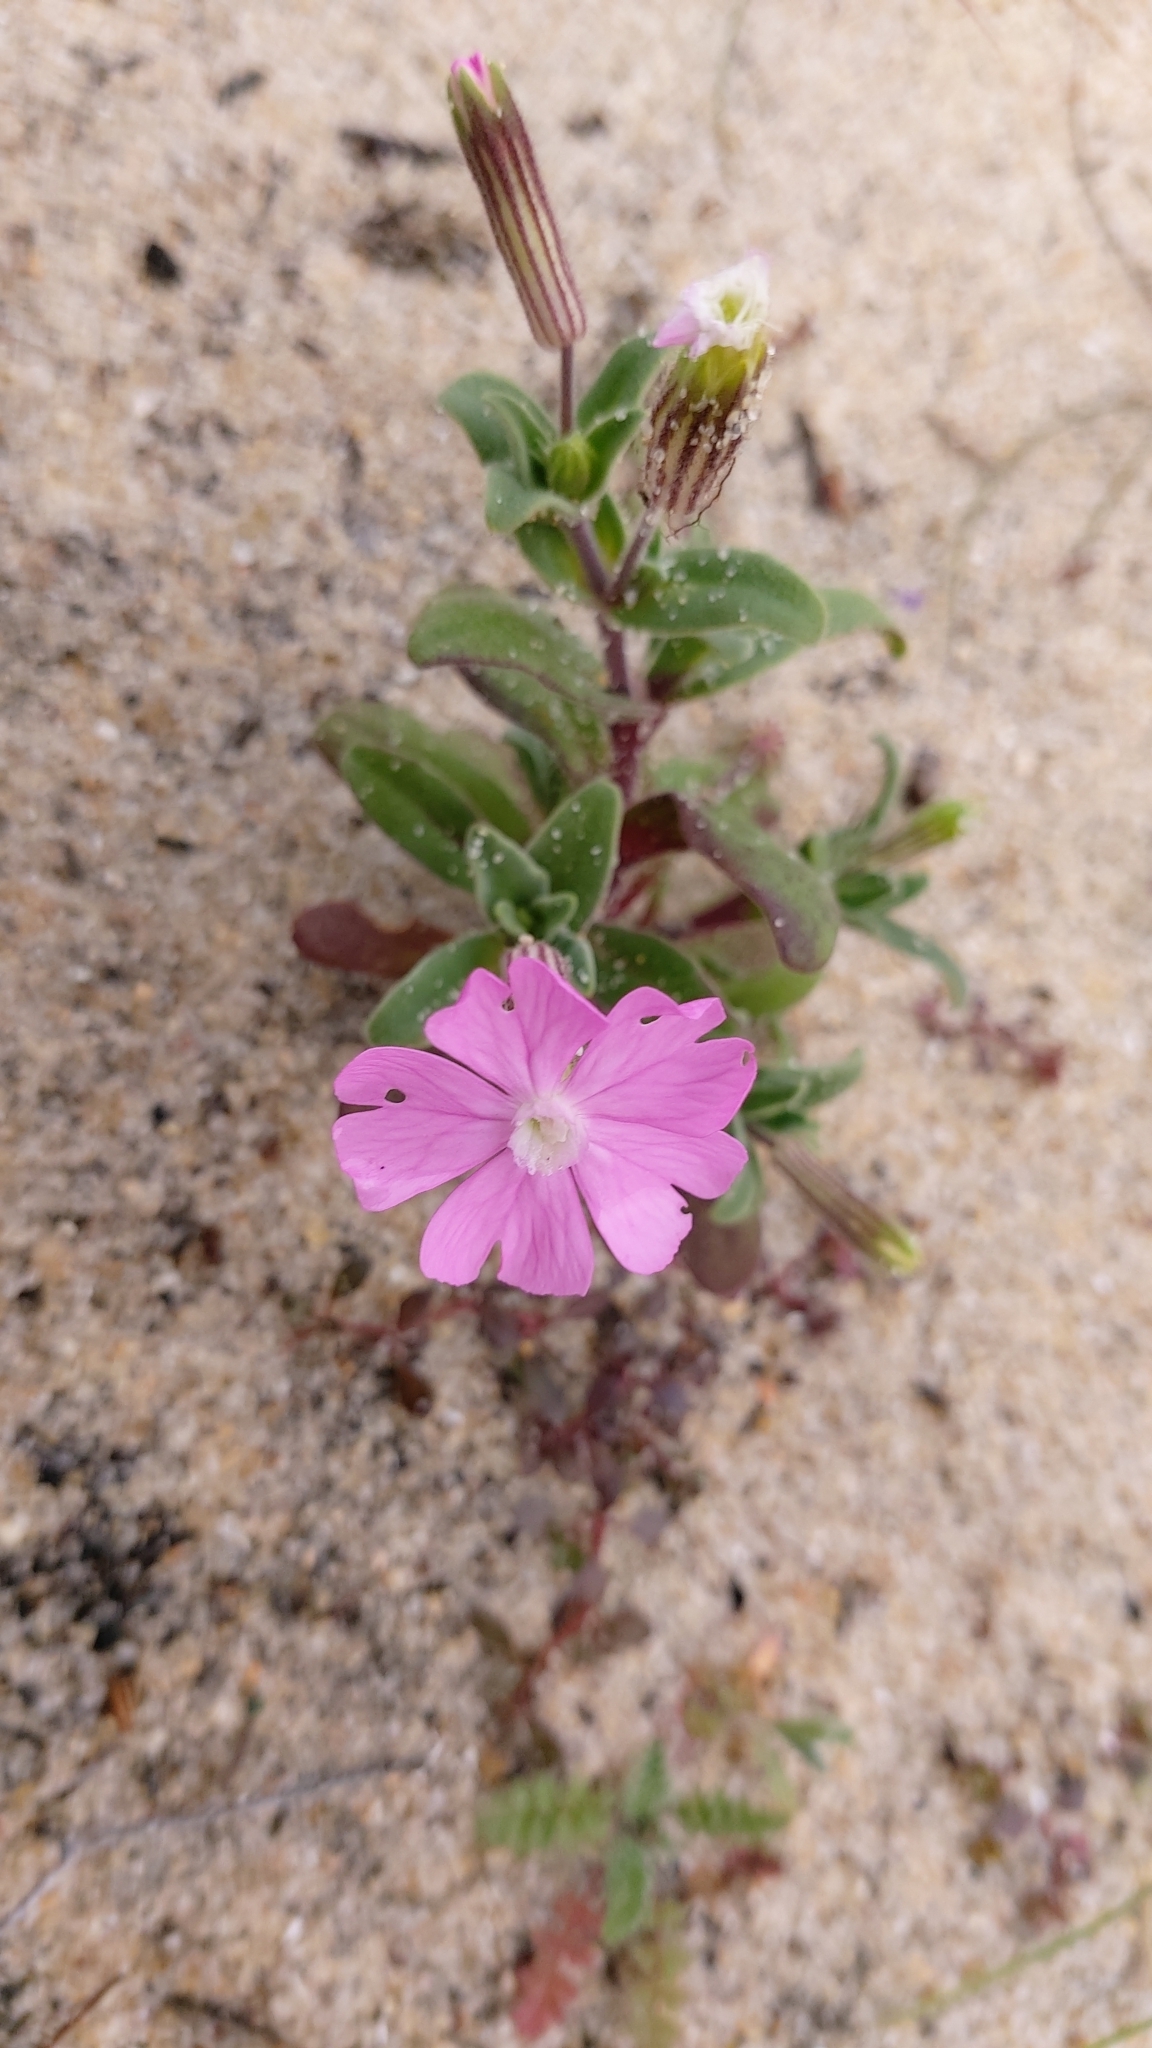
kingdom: Plantae
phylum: Tracheophyta
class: Magnoliopsida
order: Caryophyllales
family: Caryophyllaceae
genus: Silene
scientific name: Silene littorea
